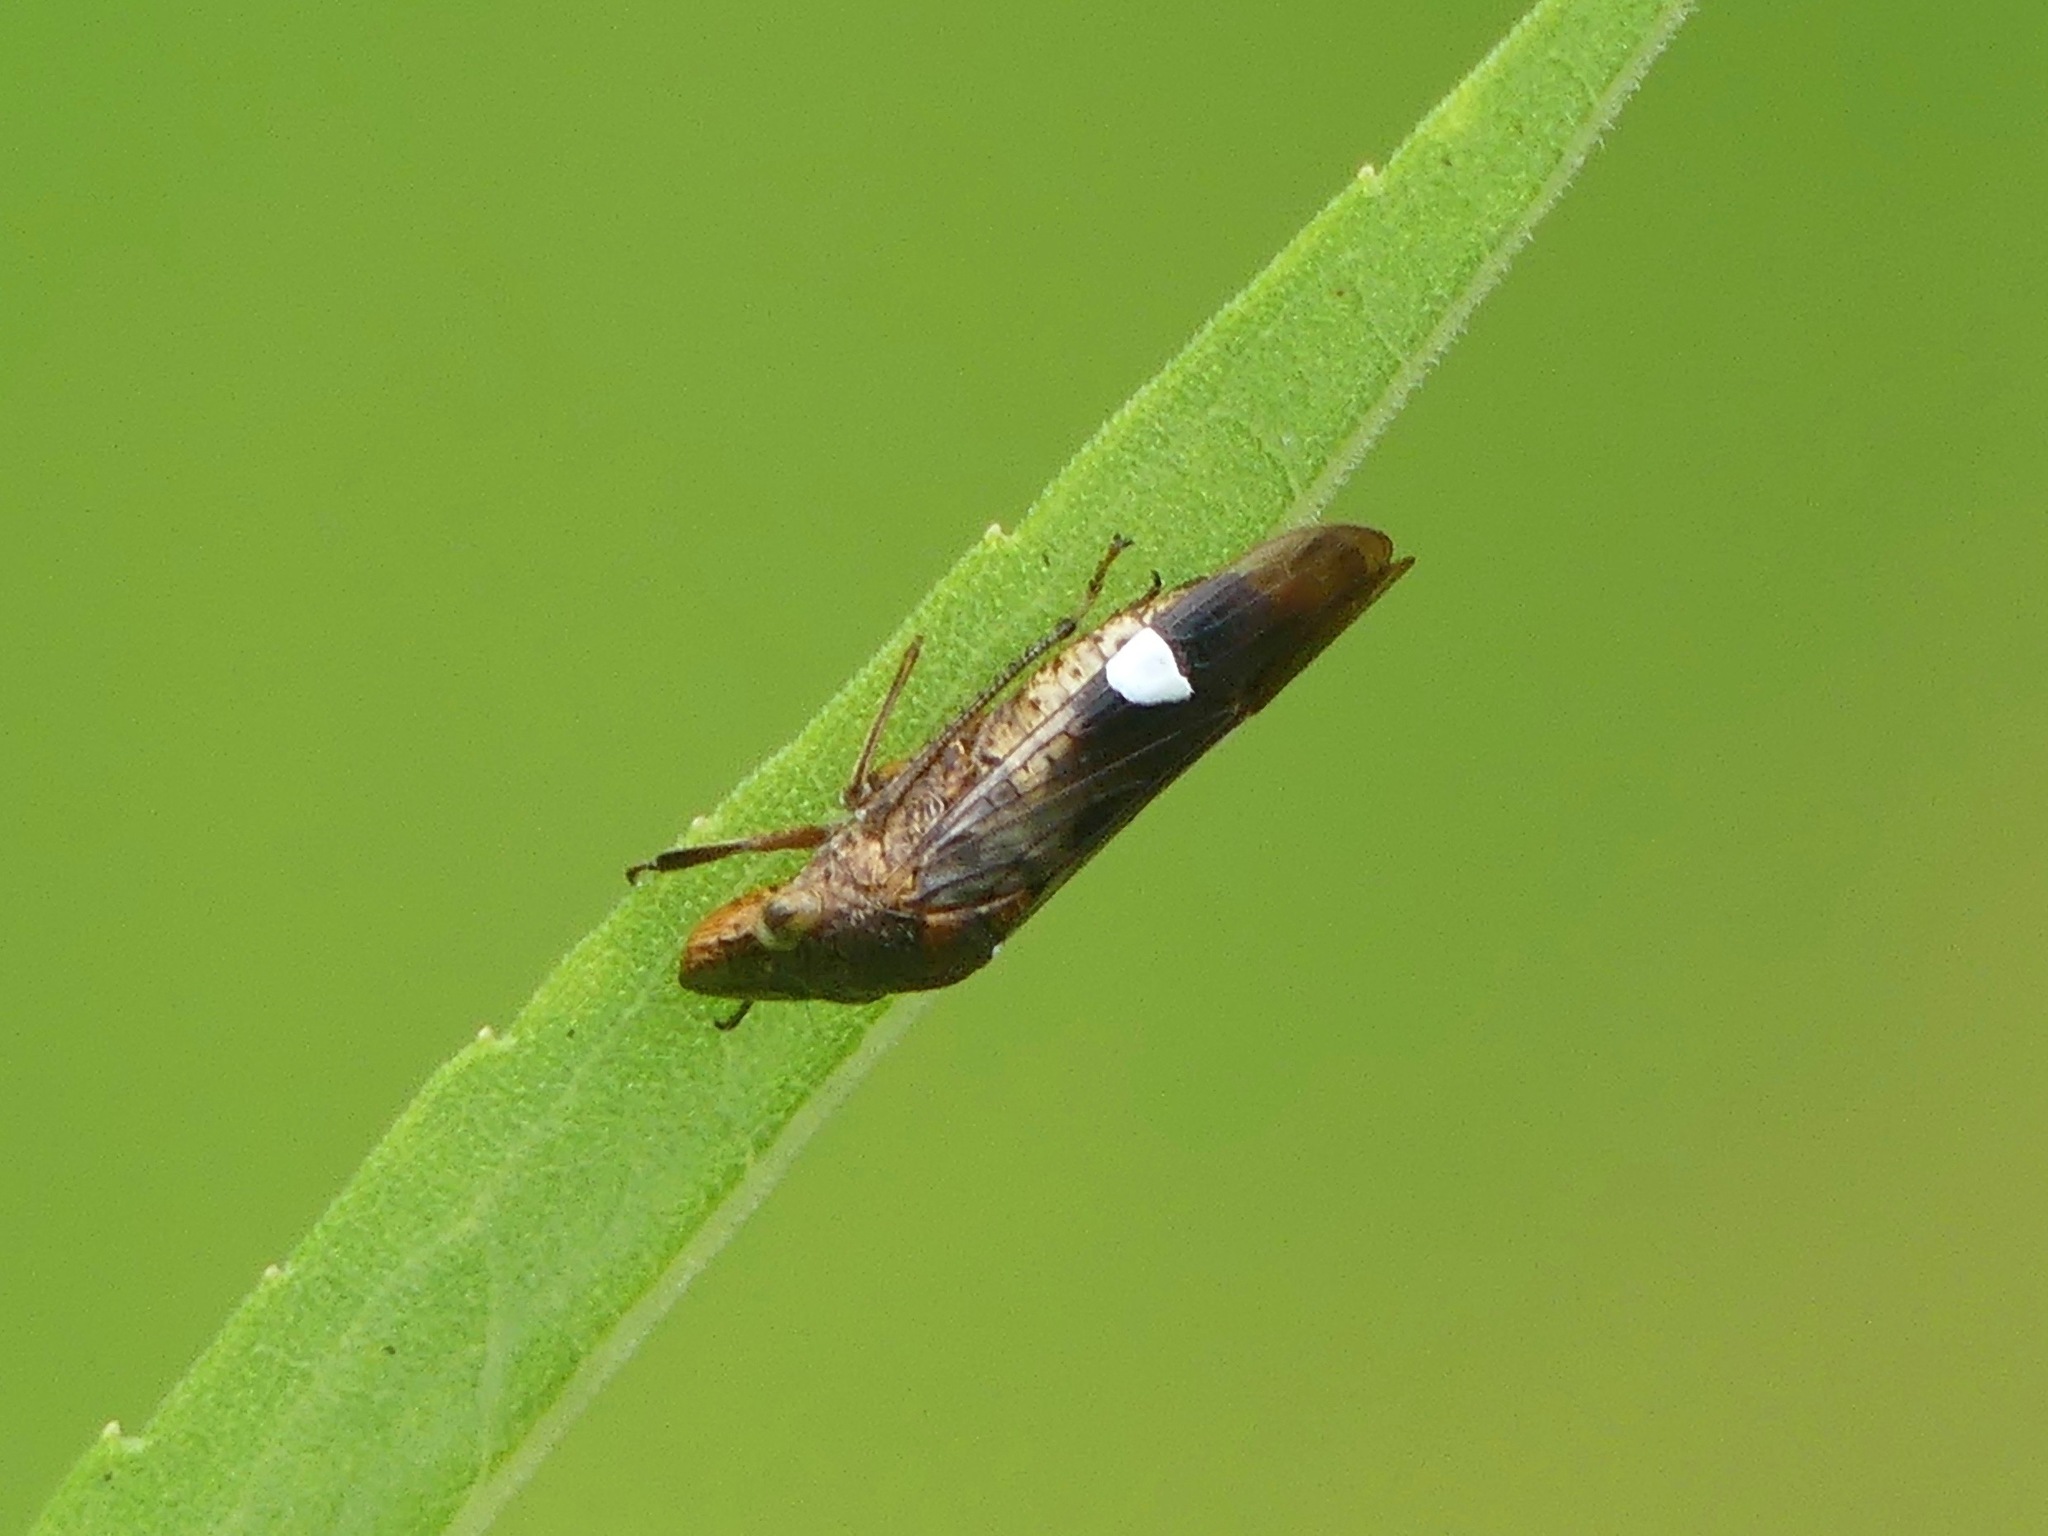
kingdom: Animalia
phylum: Arthropoda
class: Insecta
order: Hemiptera
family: Cicadellidae
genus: Homalodisca
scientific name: Homalodisca vitripennis
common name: Glassy-winged sharpshooter
